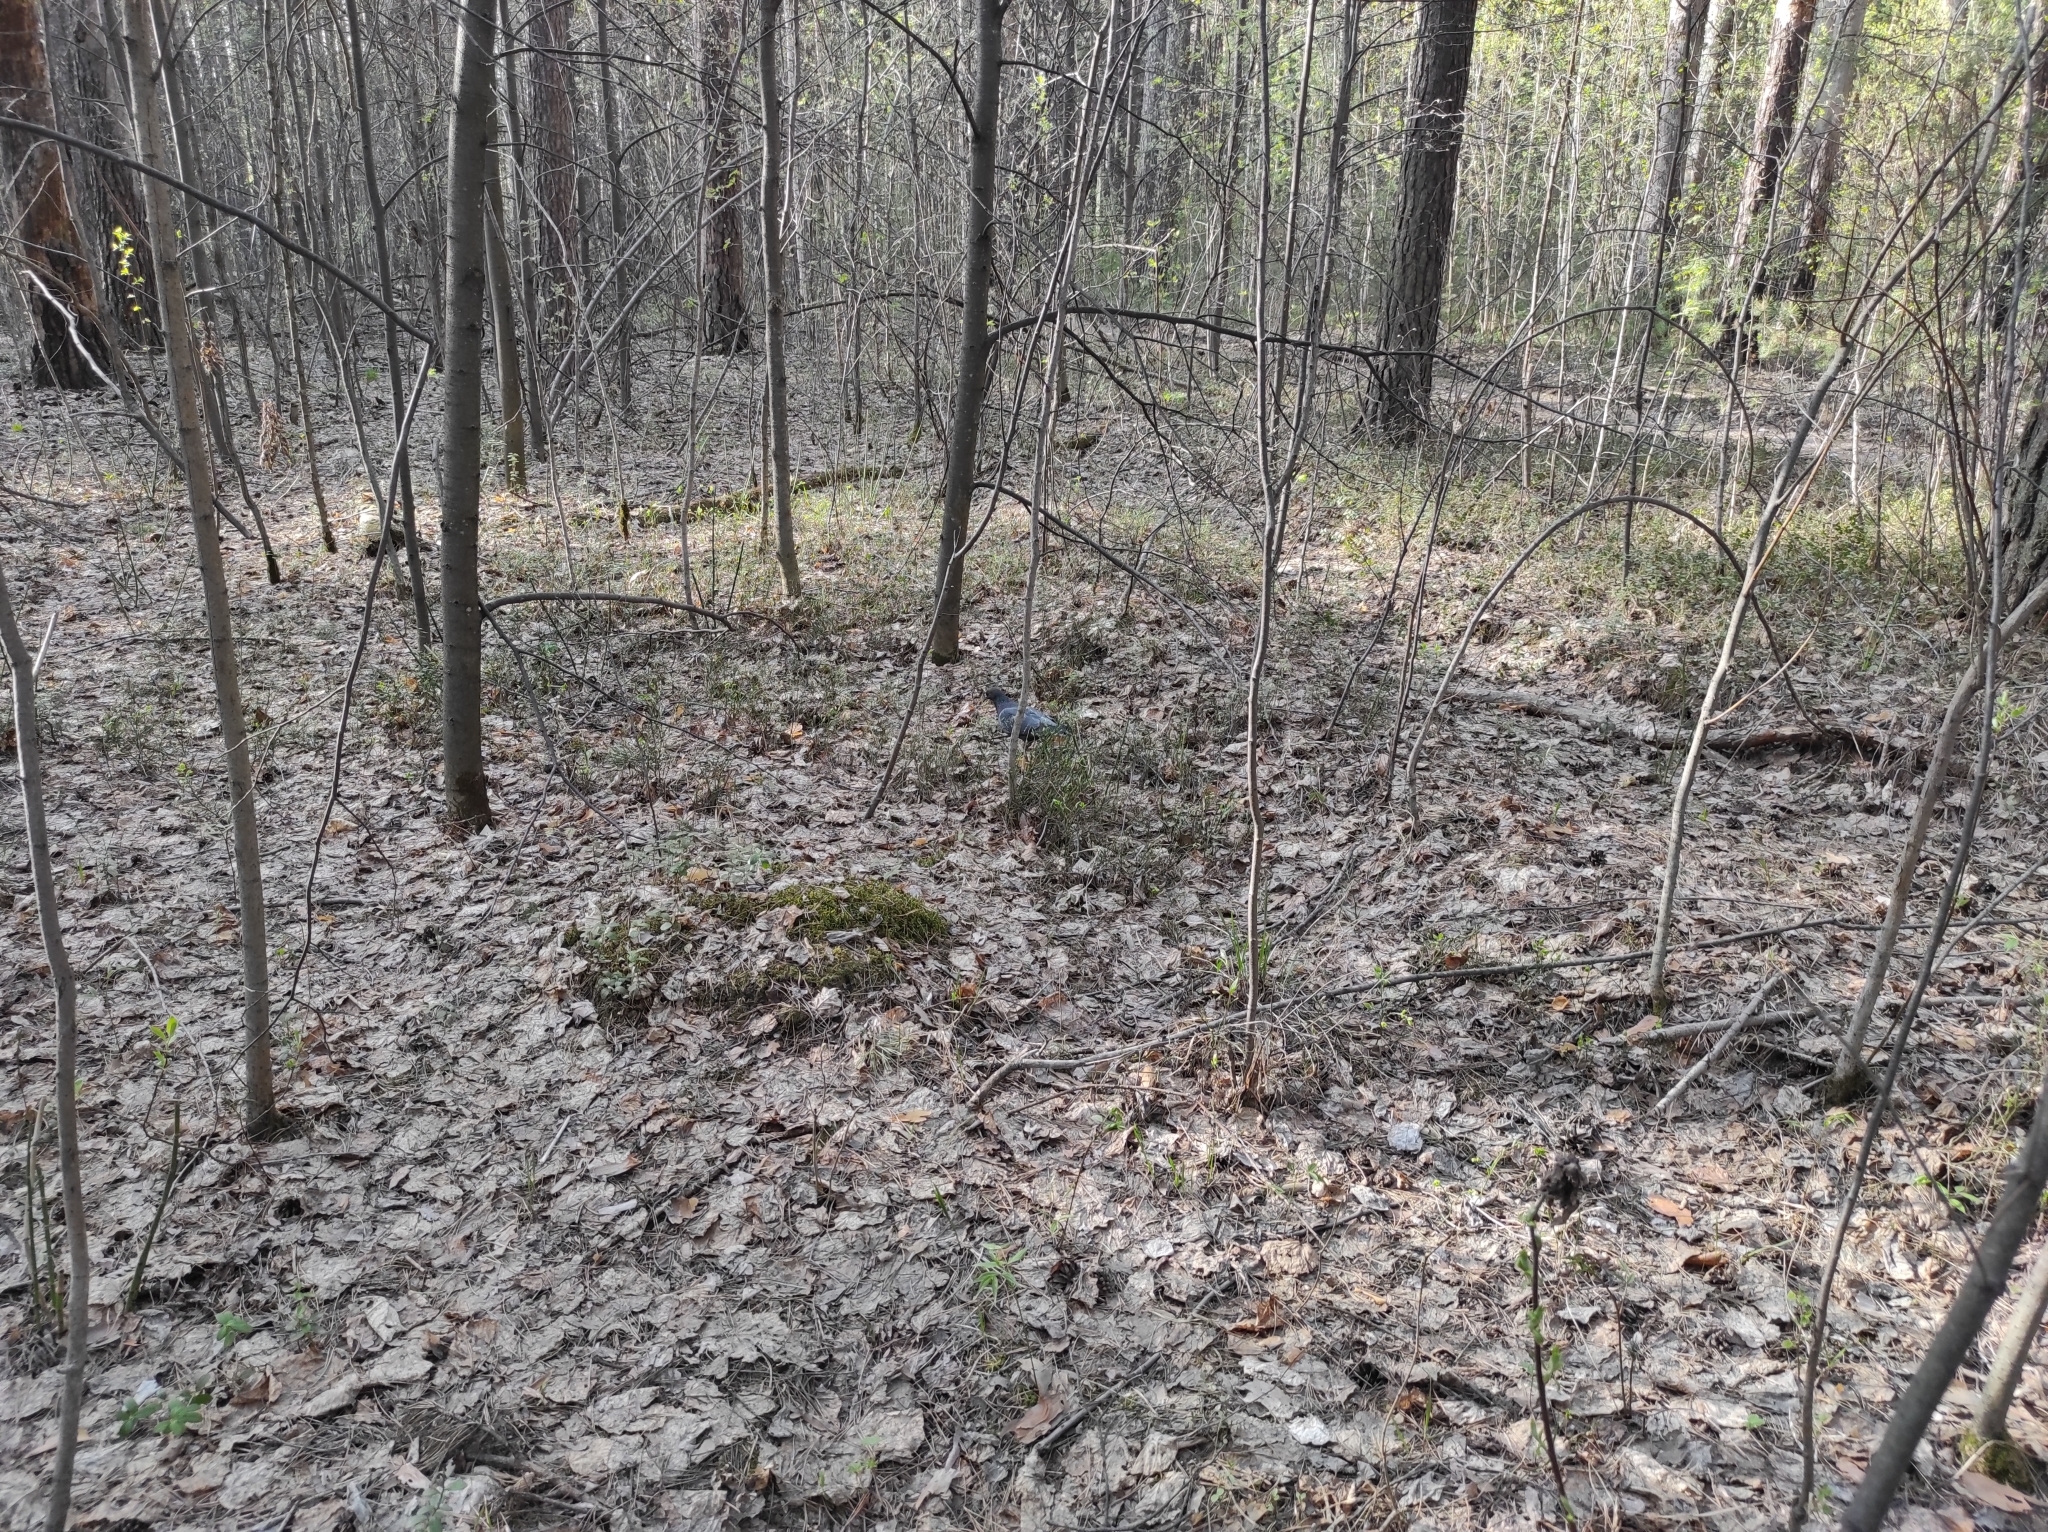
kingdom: Animalia
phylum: Chordata
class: Aves
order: Columbiformes
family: Columbidae
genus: Columba
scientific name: Columba livia
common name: Rock pigeon
